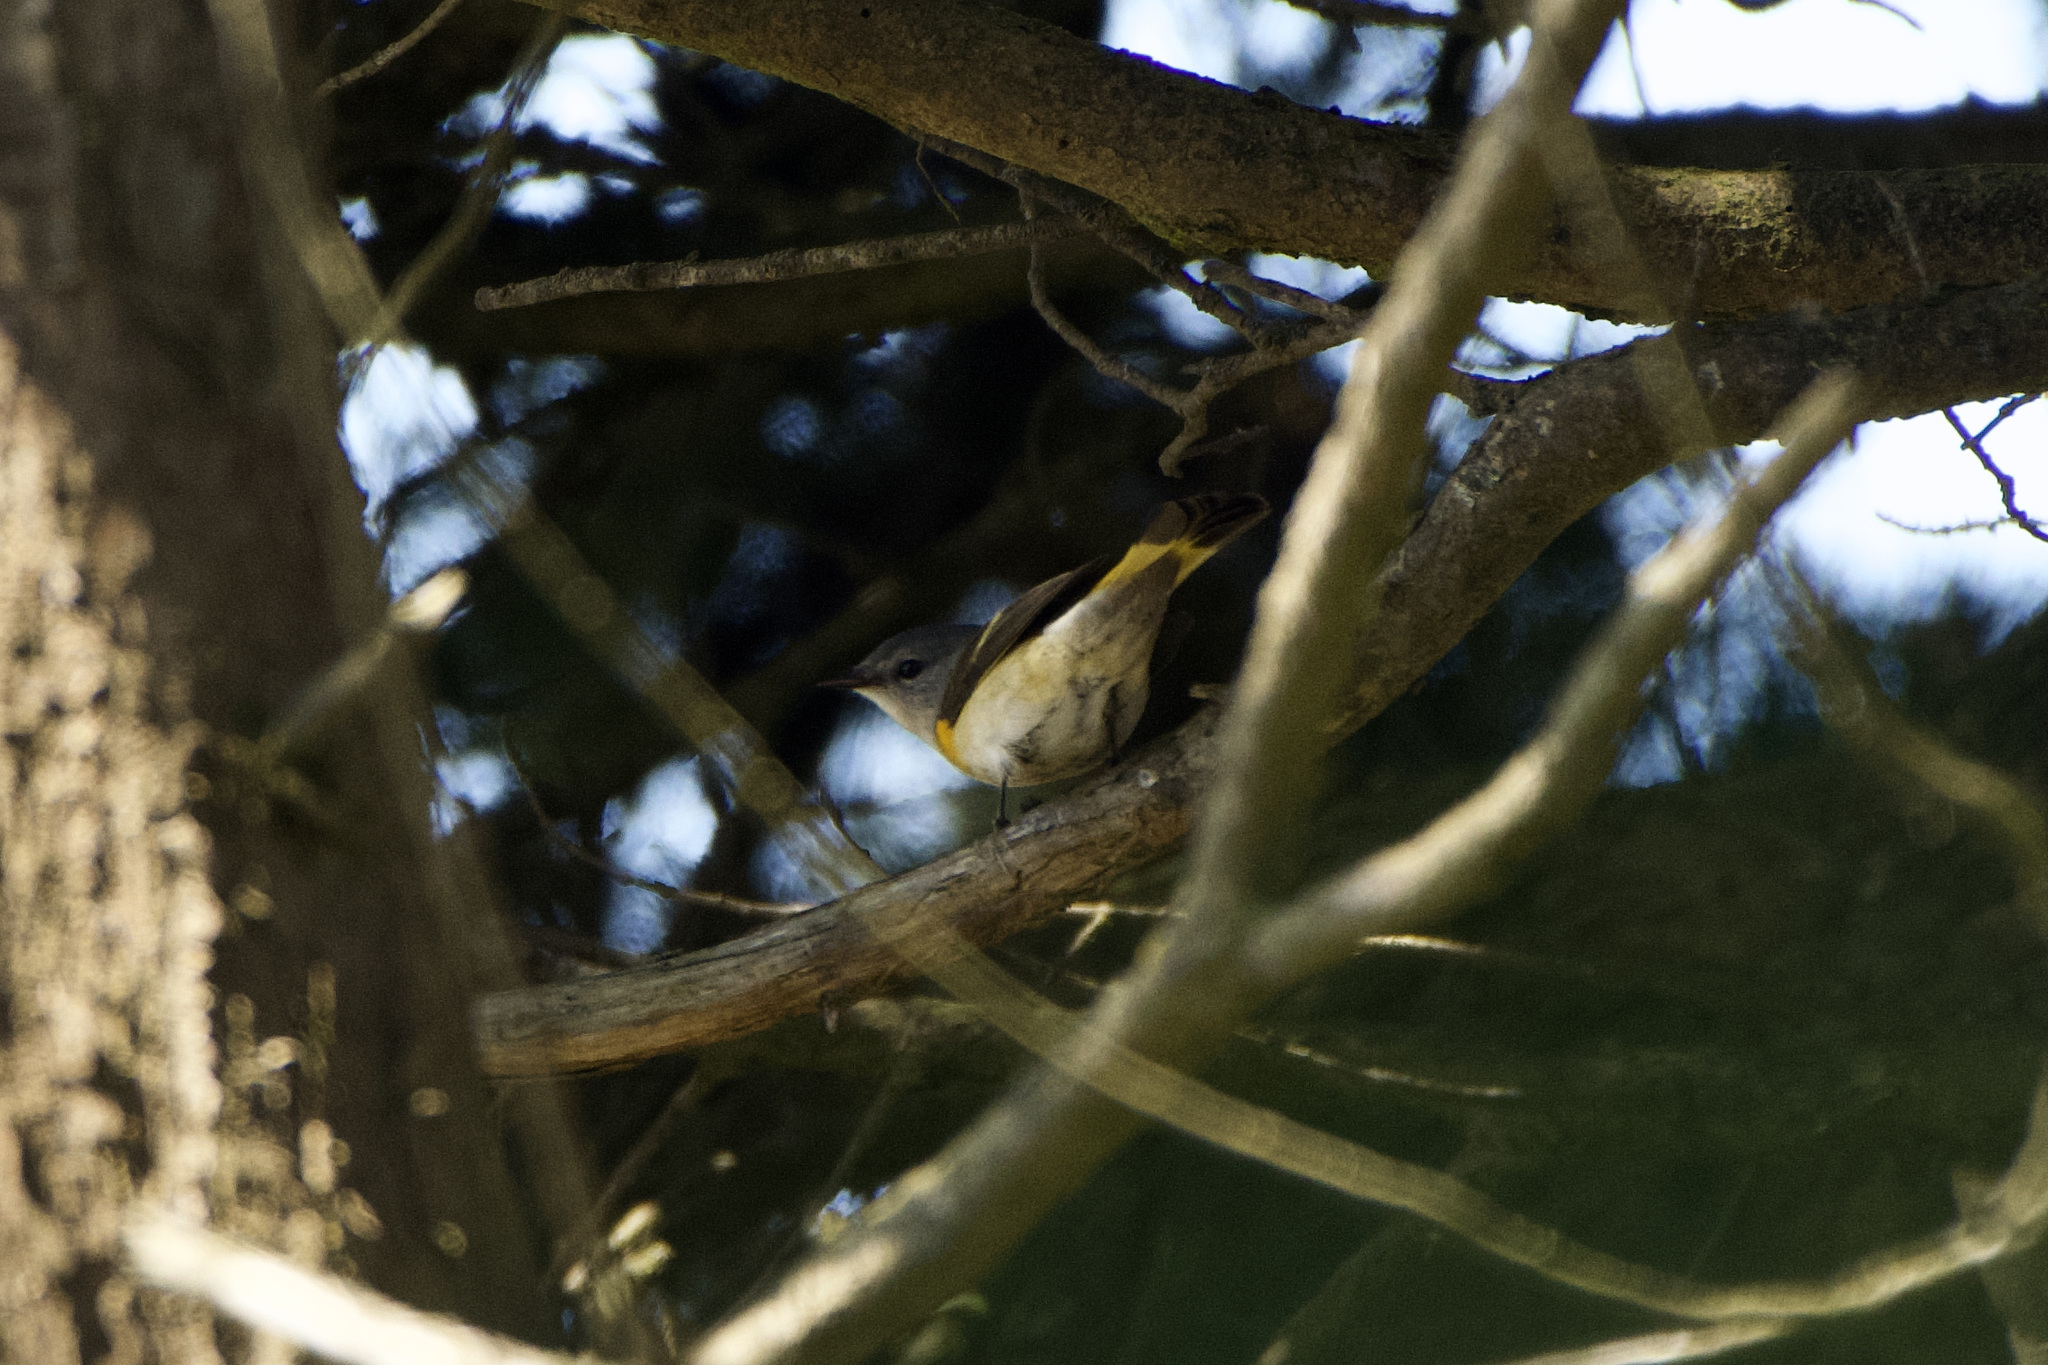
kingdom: Animalia
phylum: Chordata
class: Aves
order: Passeriformes
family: Parulidae
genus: Setophaga
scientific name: Setophaga ruticilla
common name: American redstart
